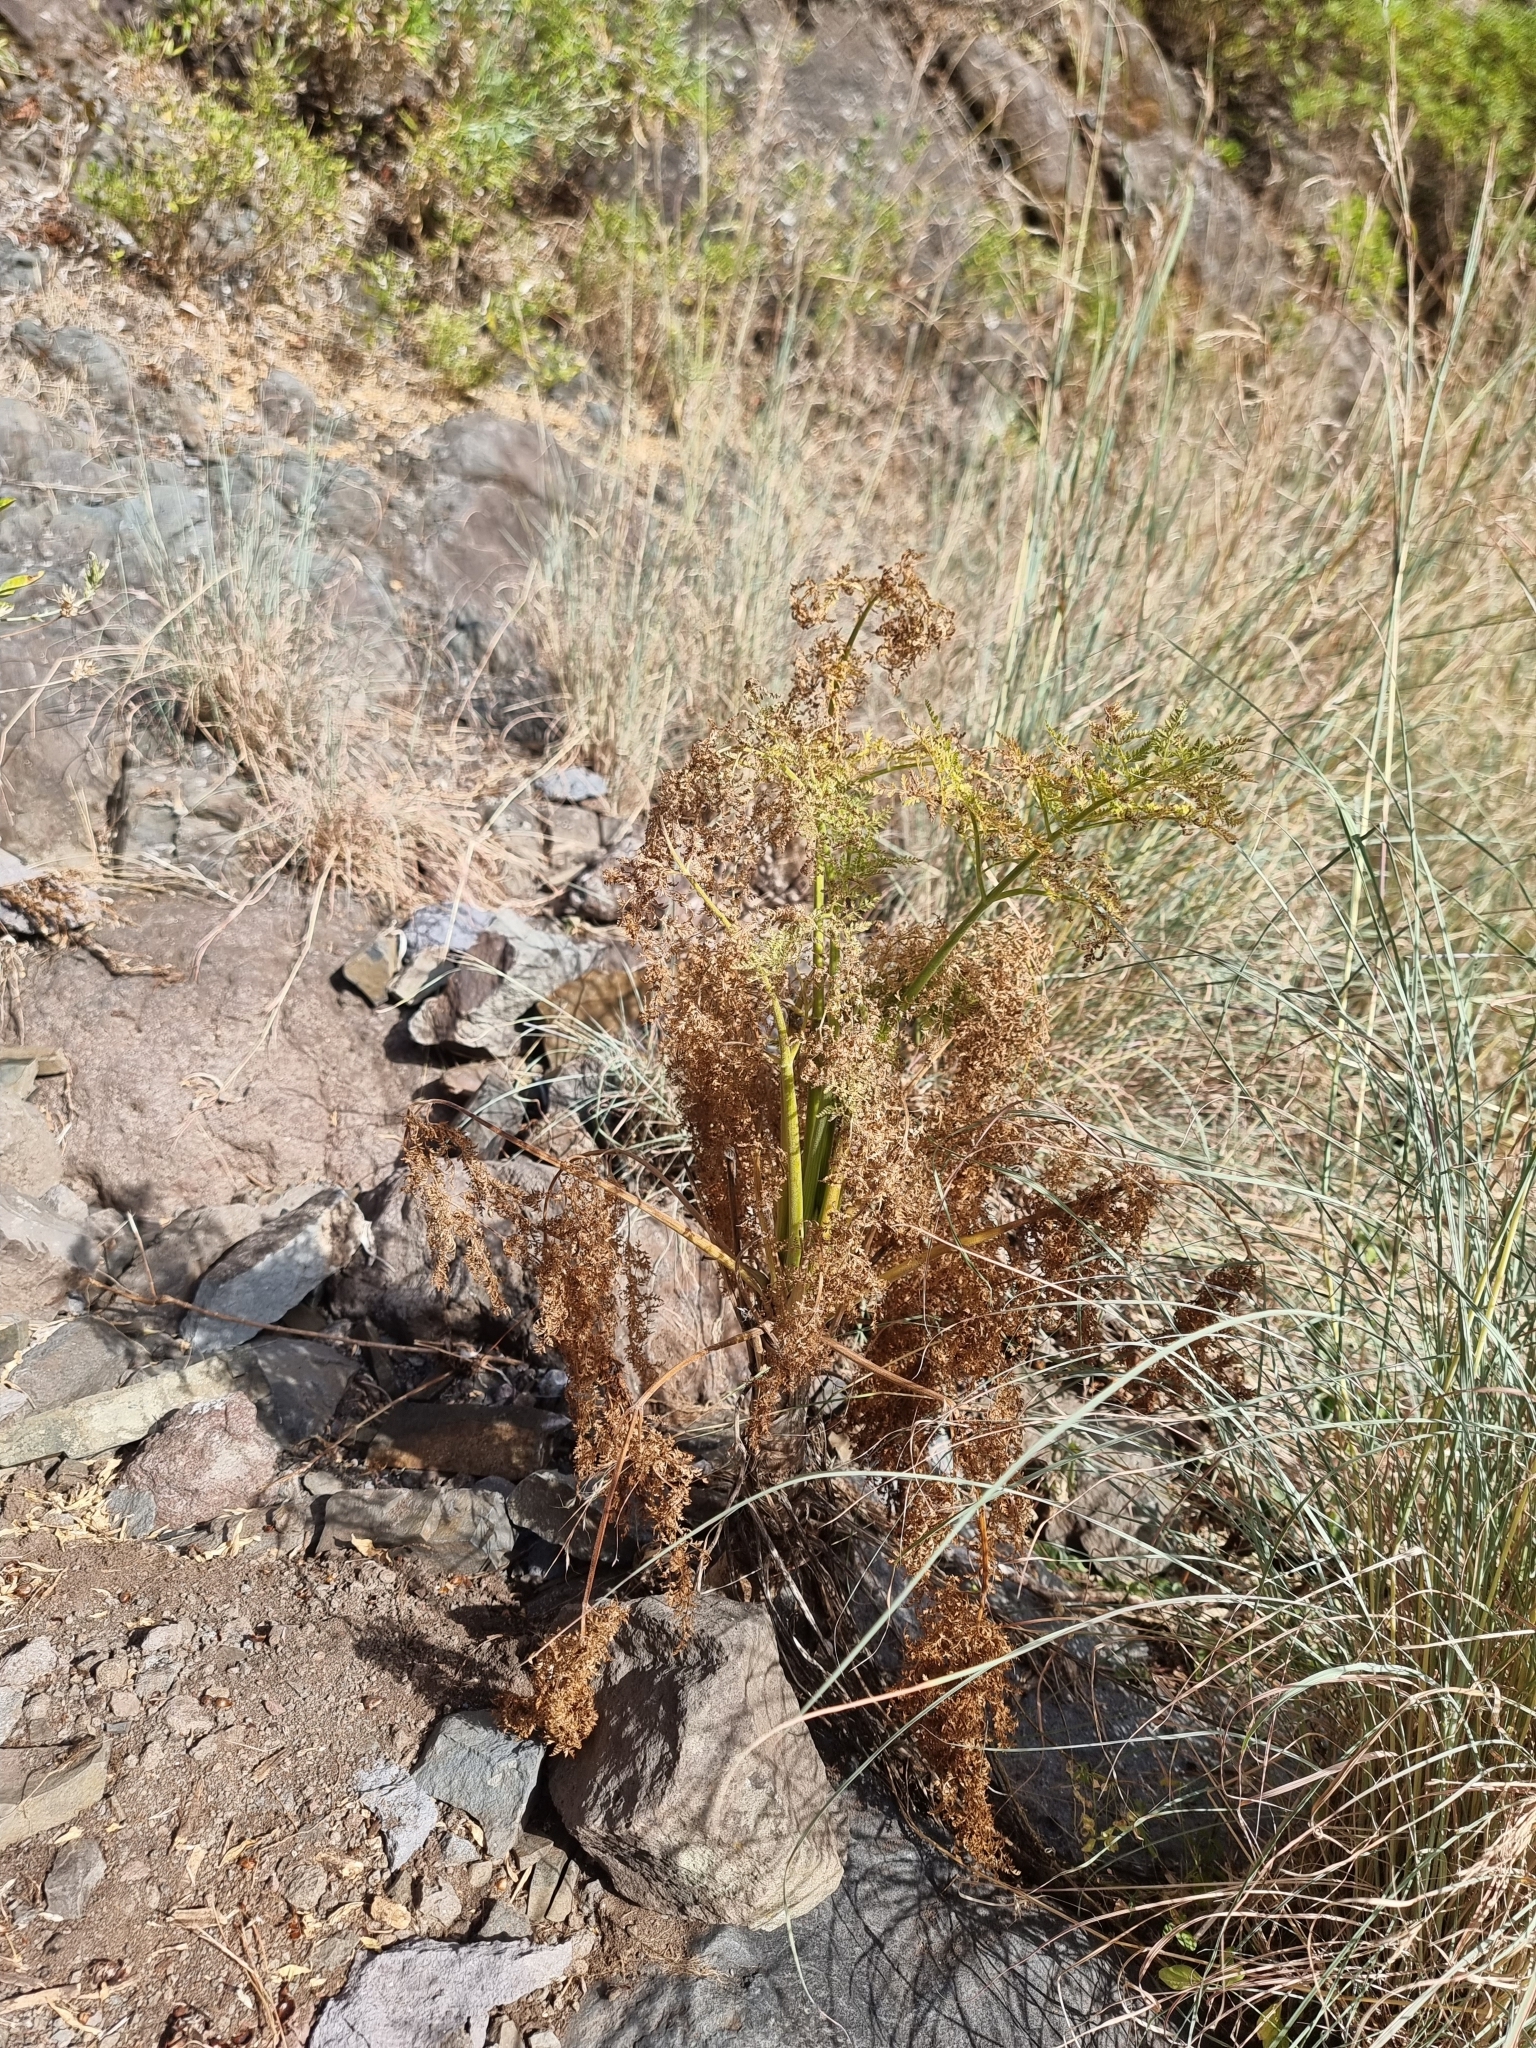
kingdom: Plantae
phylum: Tracheophyta
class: Magnoliopsida
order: Apiales
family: Apiaceae
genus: Daucus
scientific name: Daucus edulis
